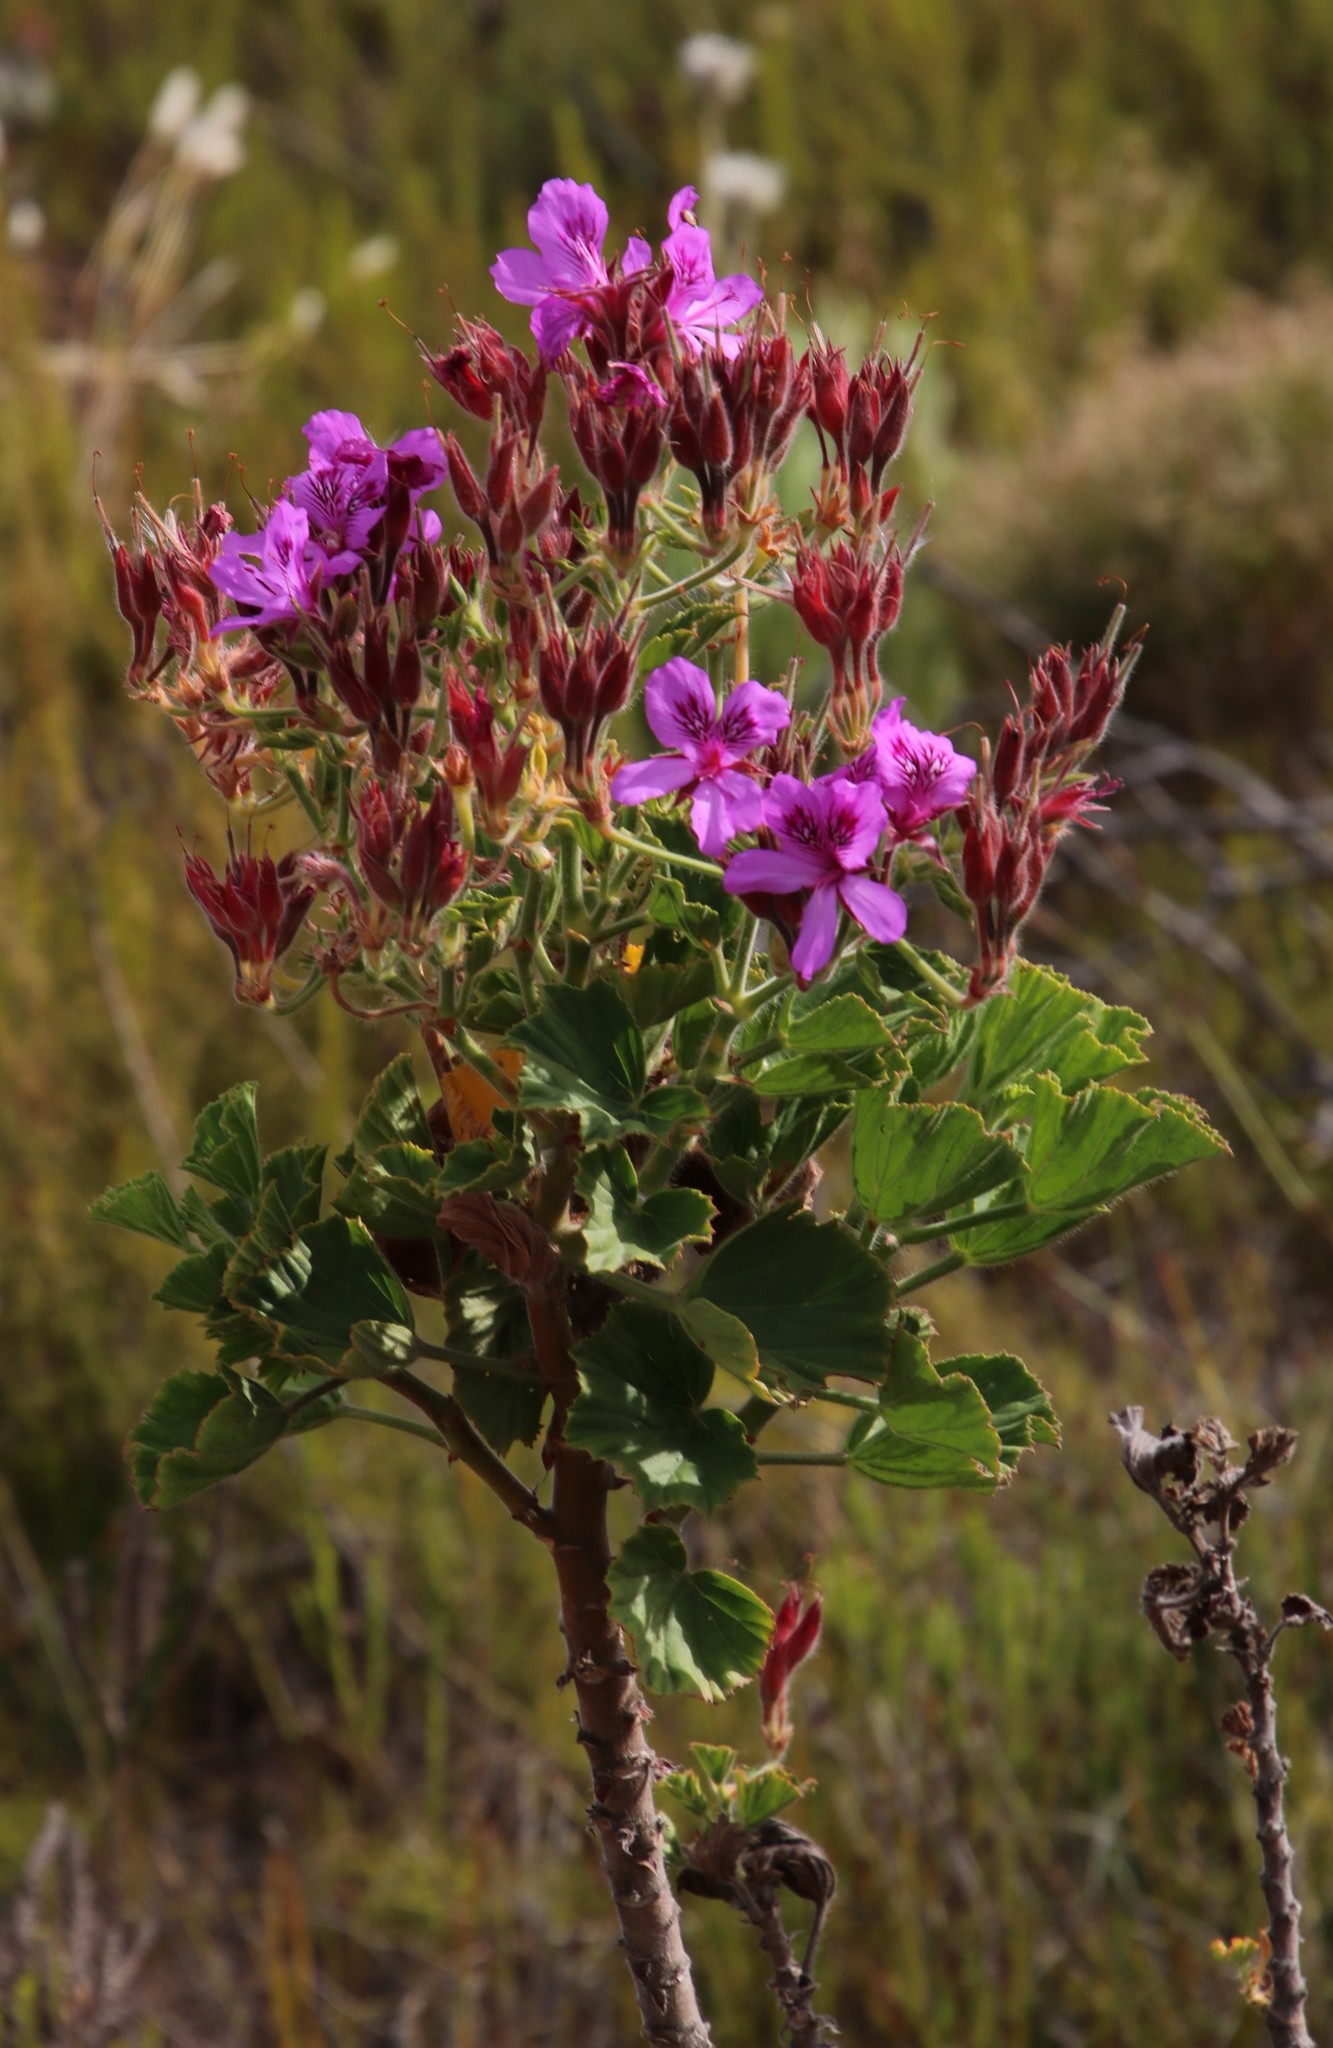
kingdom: Plantae
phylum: Tracheophyta
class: Magnoliopsida
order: Geraniales
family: Geraniaceae
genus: Pelargonium
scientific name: Pelargonium cucullatum
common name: Tree pelargonium
